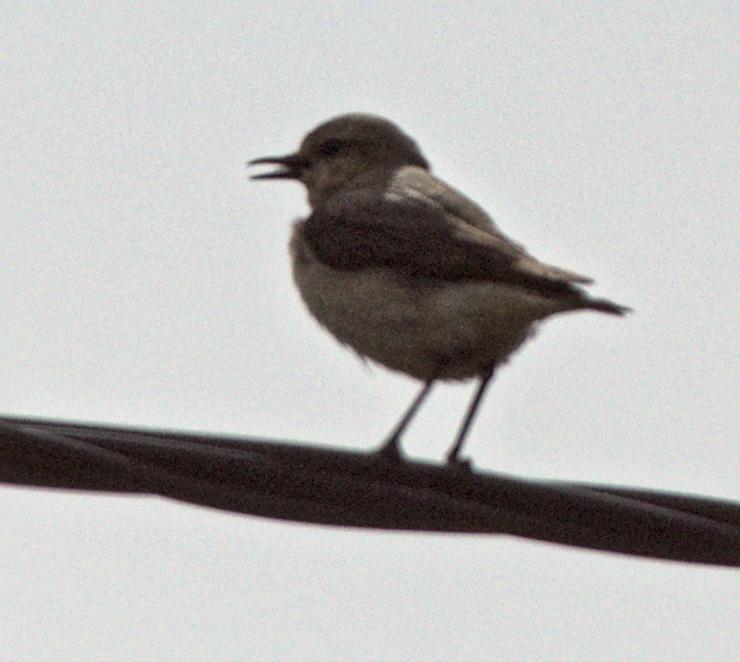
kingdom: Animalia
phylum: Chordata
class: Aves
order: Passeriformes
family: Muscicapidae
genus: Oenanthe
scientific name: Oenanthe oenanthe
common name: Northern wheatear
